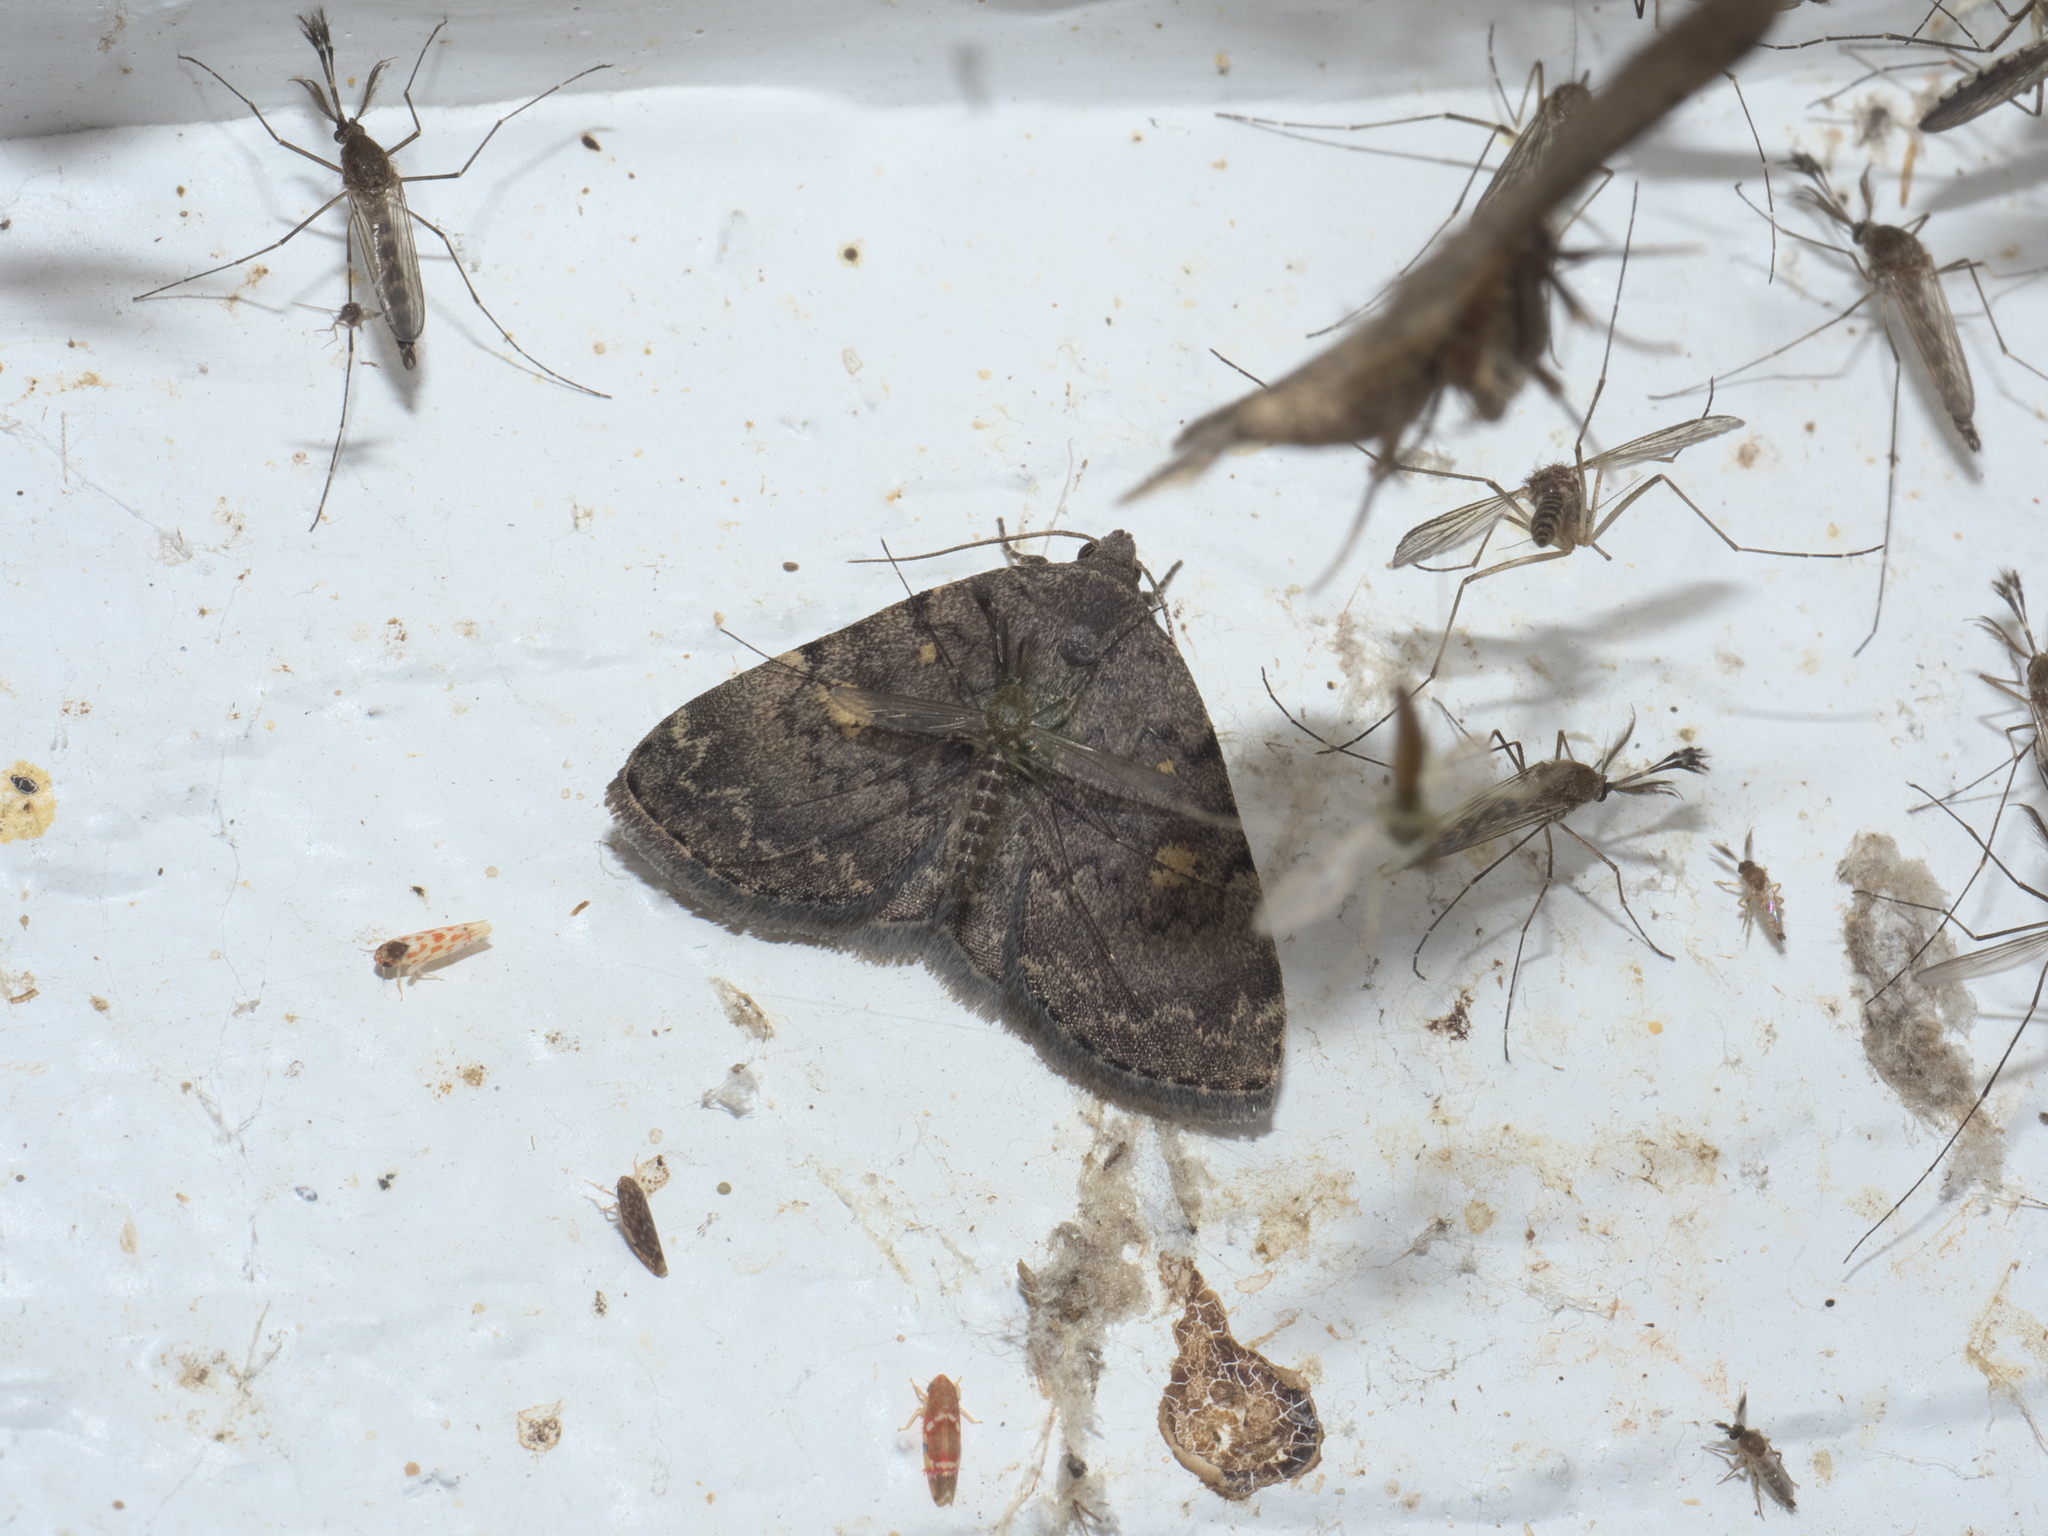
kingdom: Animalia
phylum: Arthropoda
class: Insecta
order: Lepidoptera
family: Erebidae
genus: Idia
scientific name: Idia aemula
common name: Common idia moth
